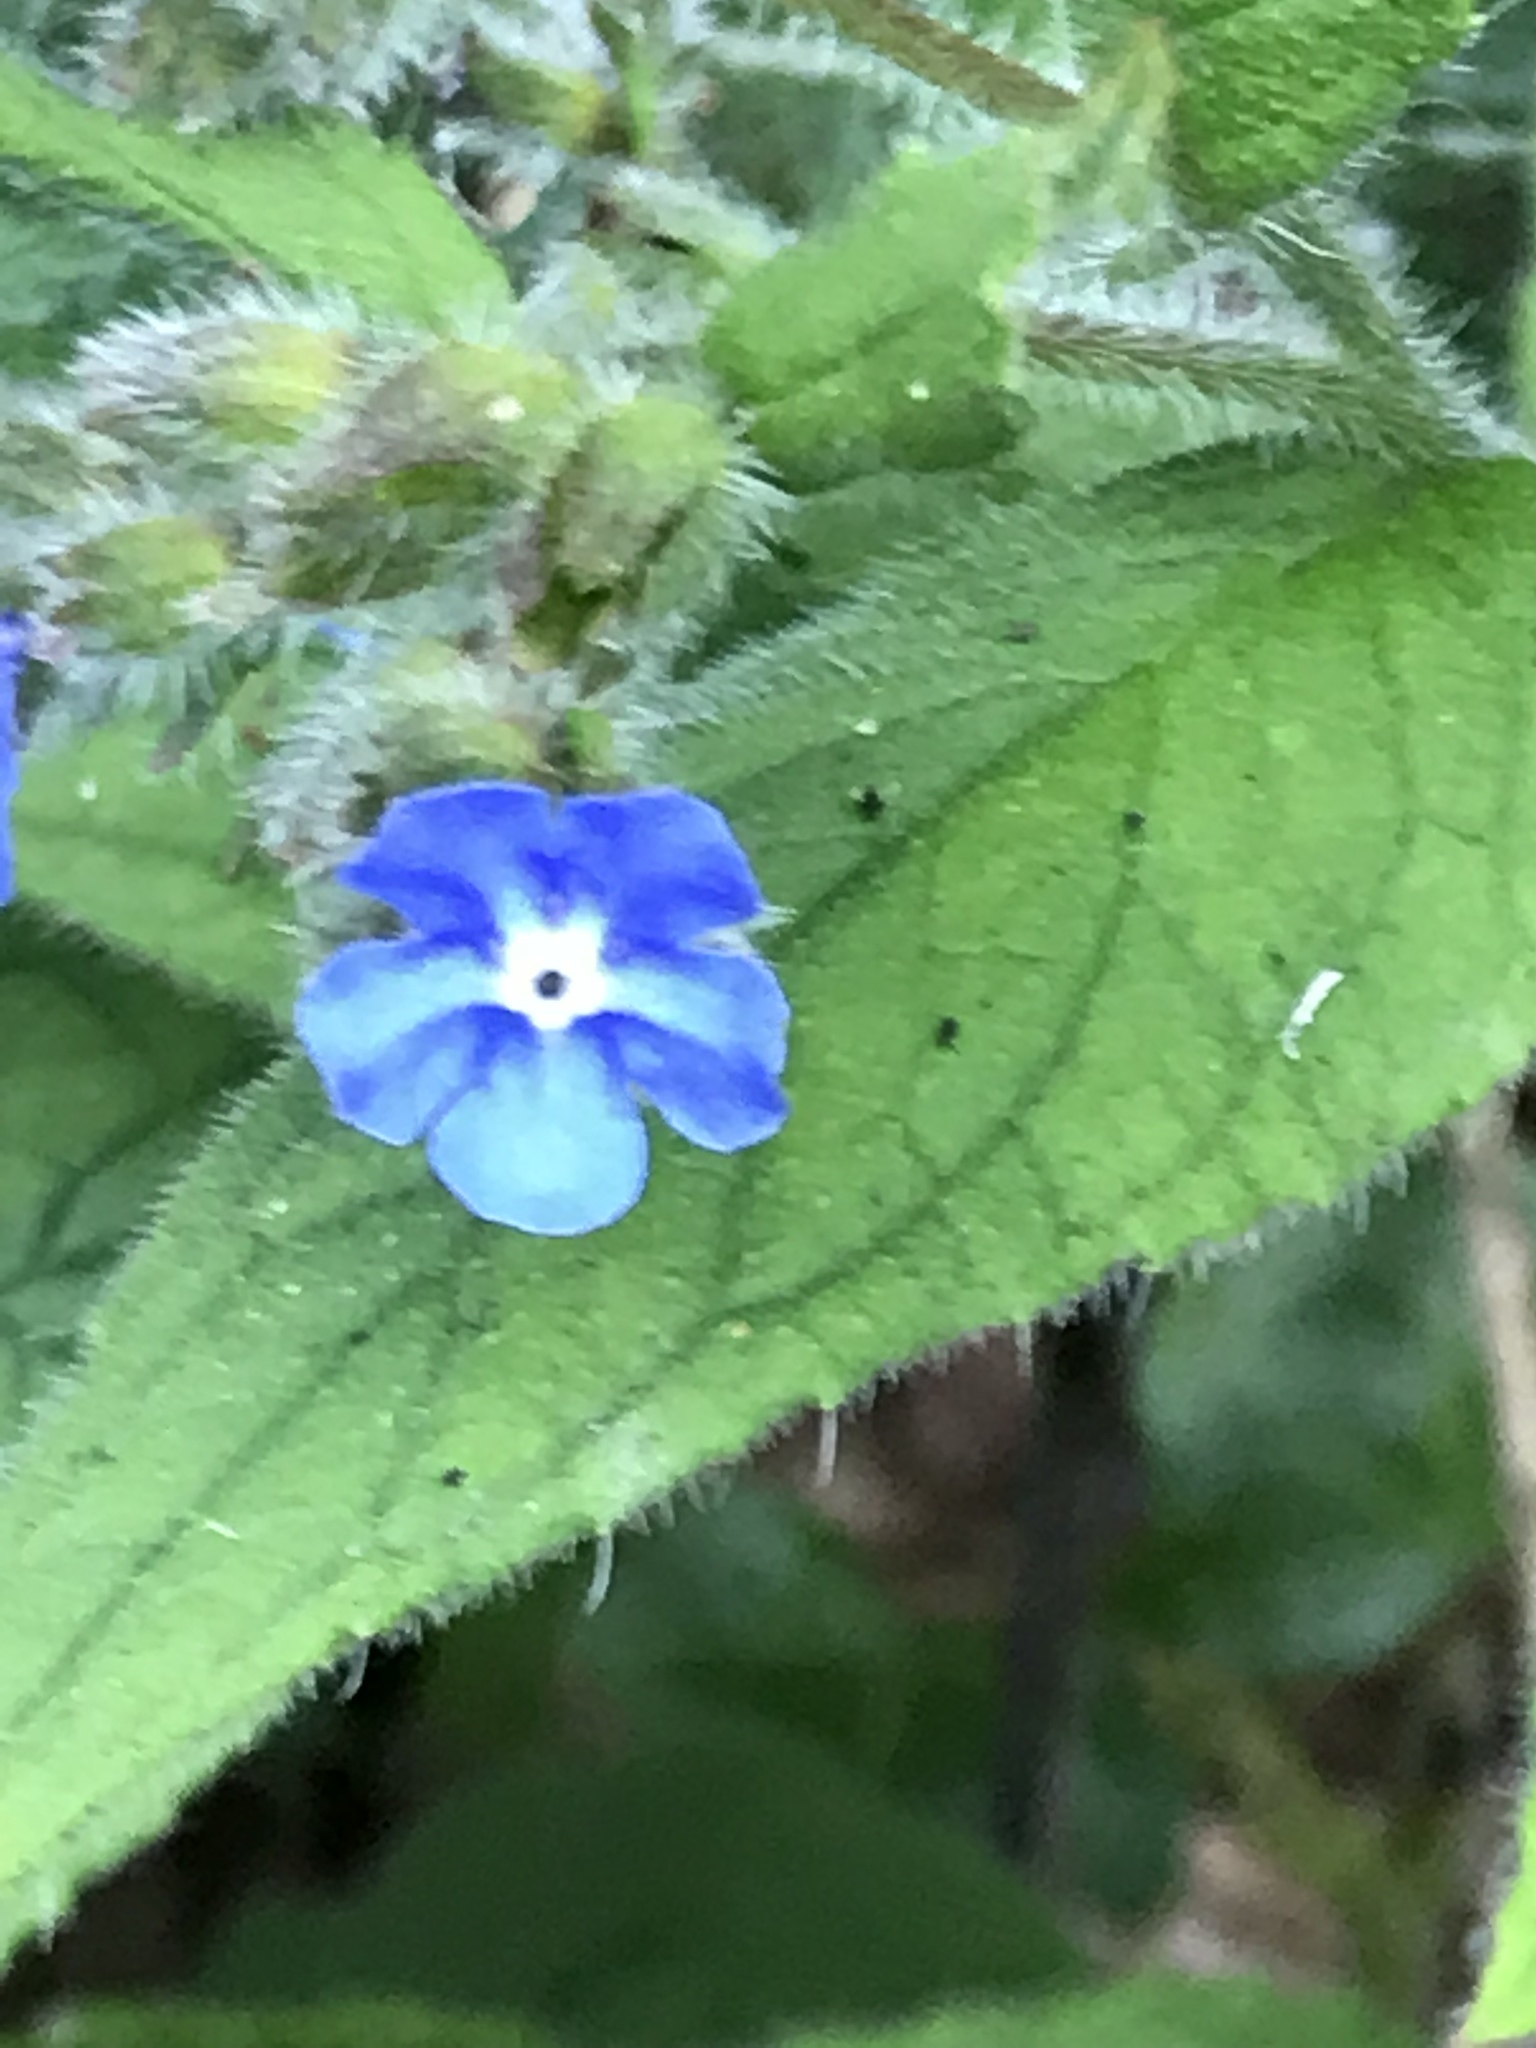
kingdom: Plantae
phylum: Tracheophyta
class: Magnoliopsida
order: Boraginales
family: Boraginaceae
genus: Pentaglottis
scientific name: Pentaglottis sempervirens
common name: Green alkanet
